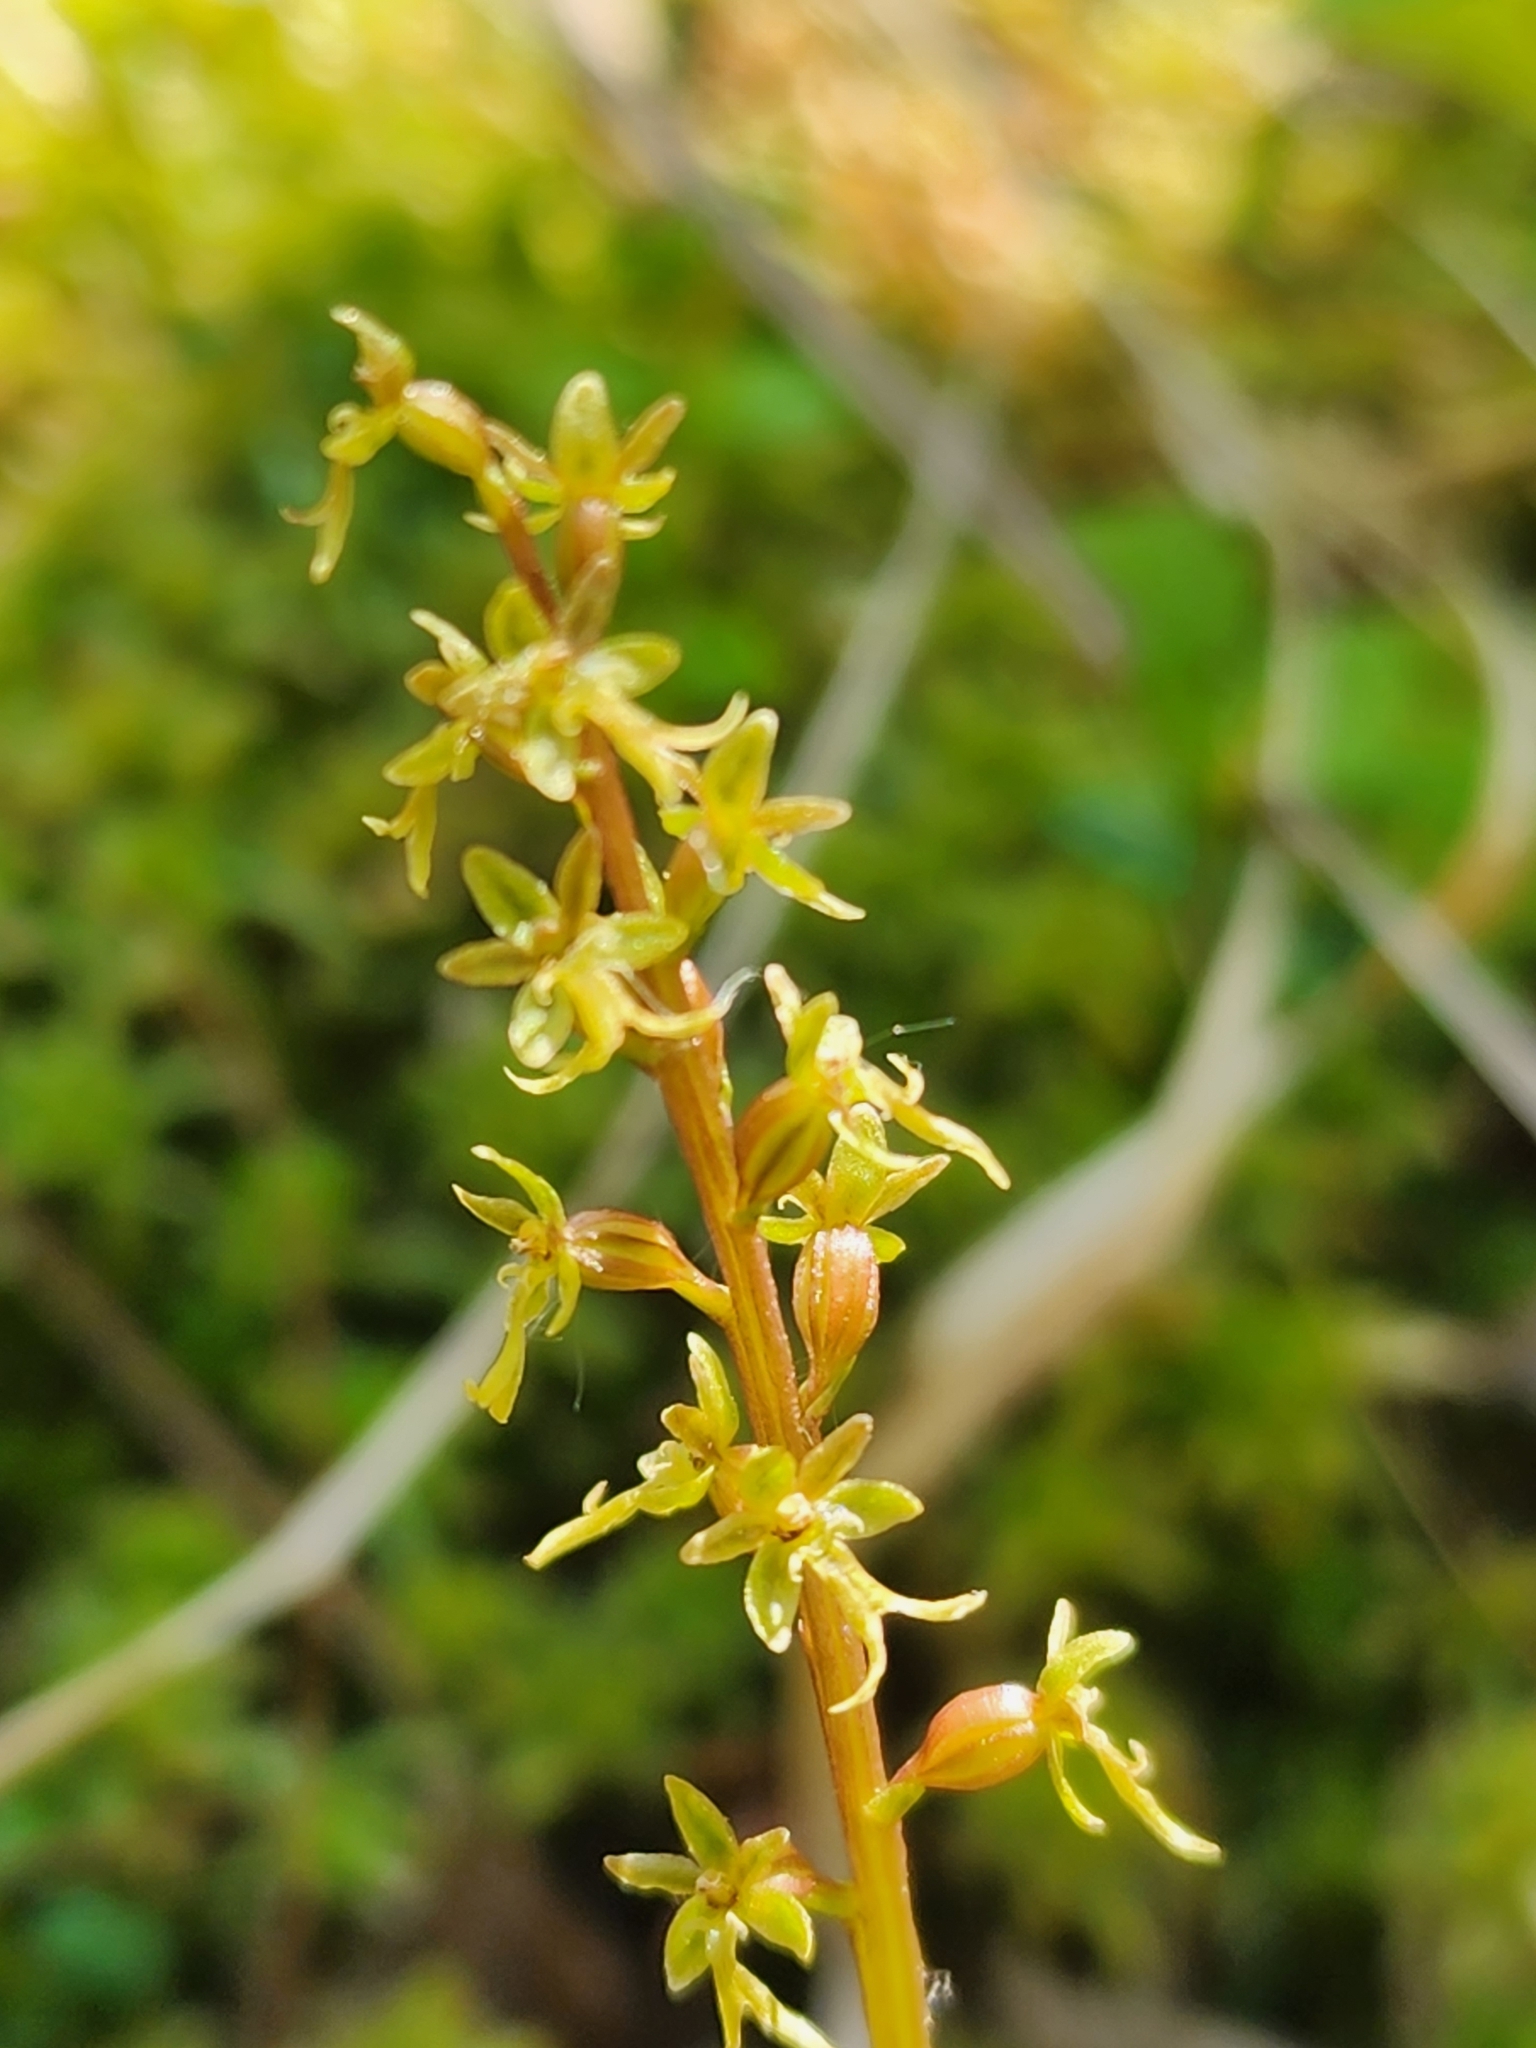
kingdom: Plantae
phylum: Tracheophyta
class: Liliopsida
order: Asparagales
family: Orchidaceae
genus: Neottia
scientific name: Neottia cordata
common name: Lesser twayblade
